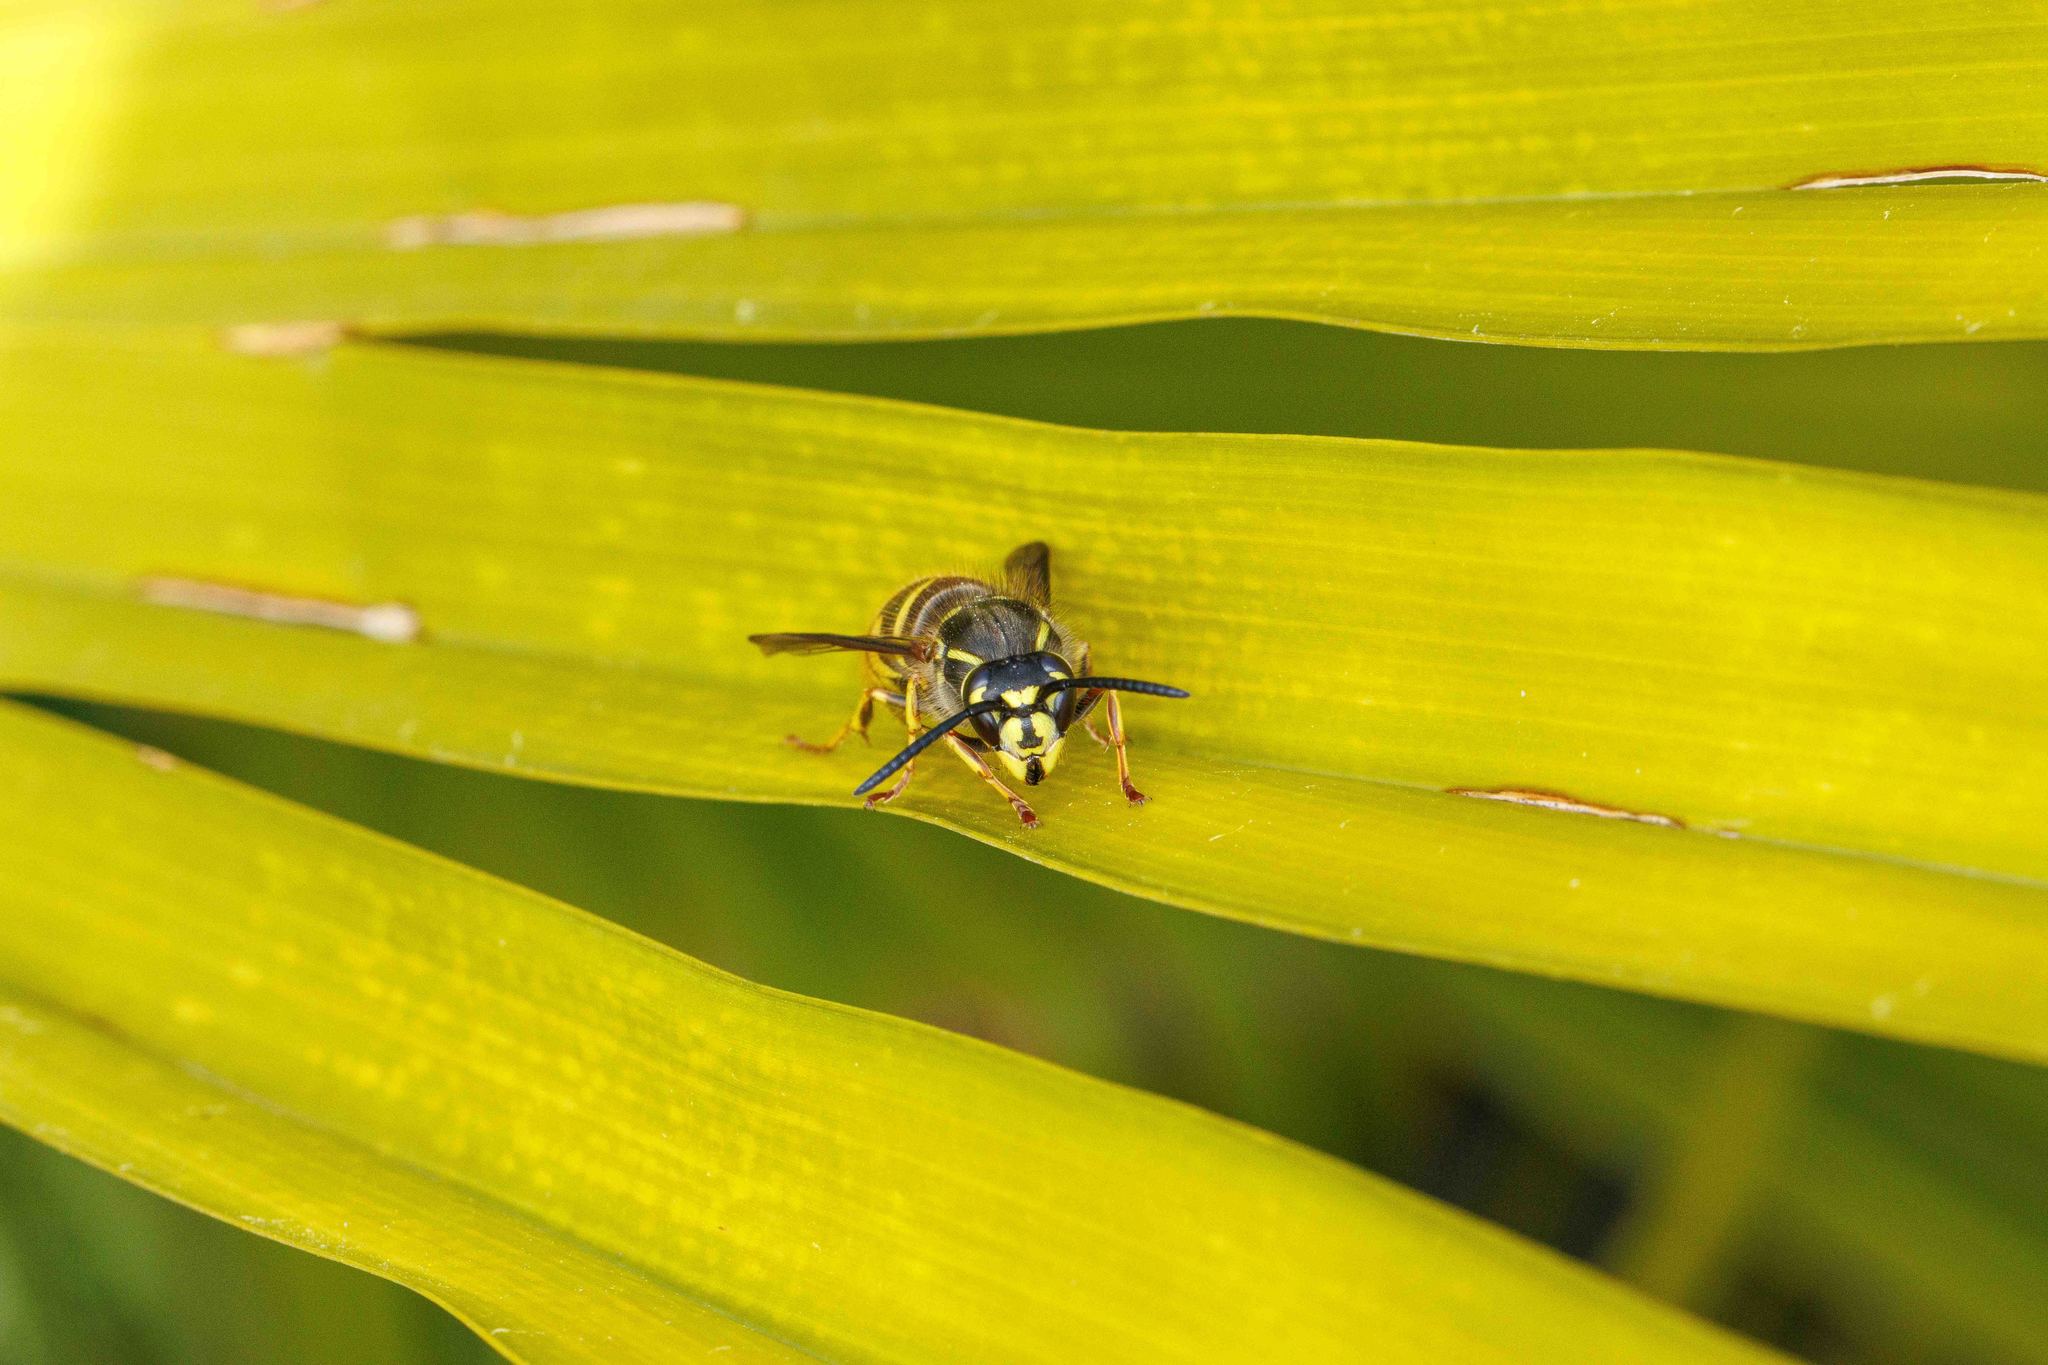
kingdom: Animalia
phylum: Arthropoda
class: Insecta
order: Hymenoptera
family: Vespidae
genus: Vespula
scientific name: Vespula alascensis
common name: Alaska yellowjacket
